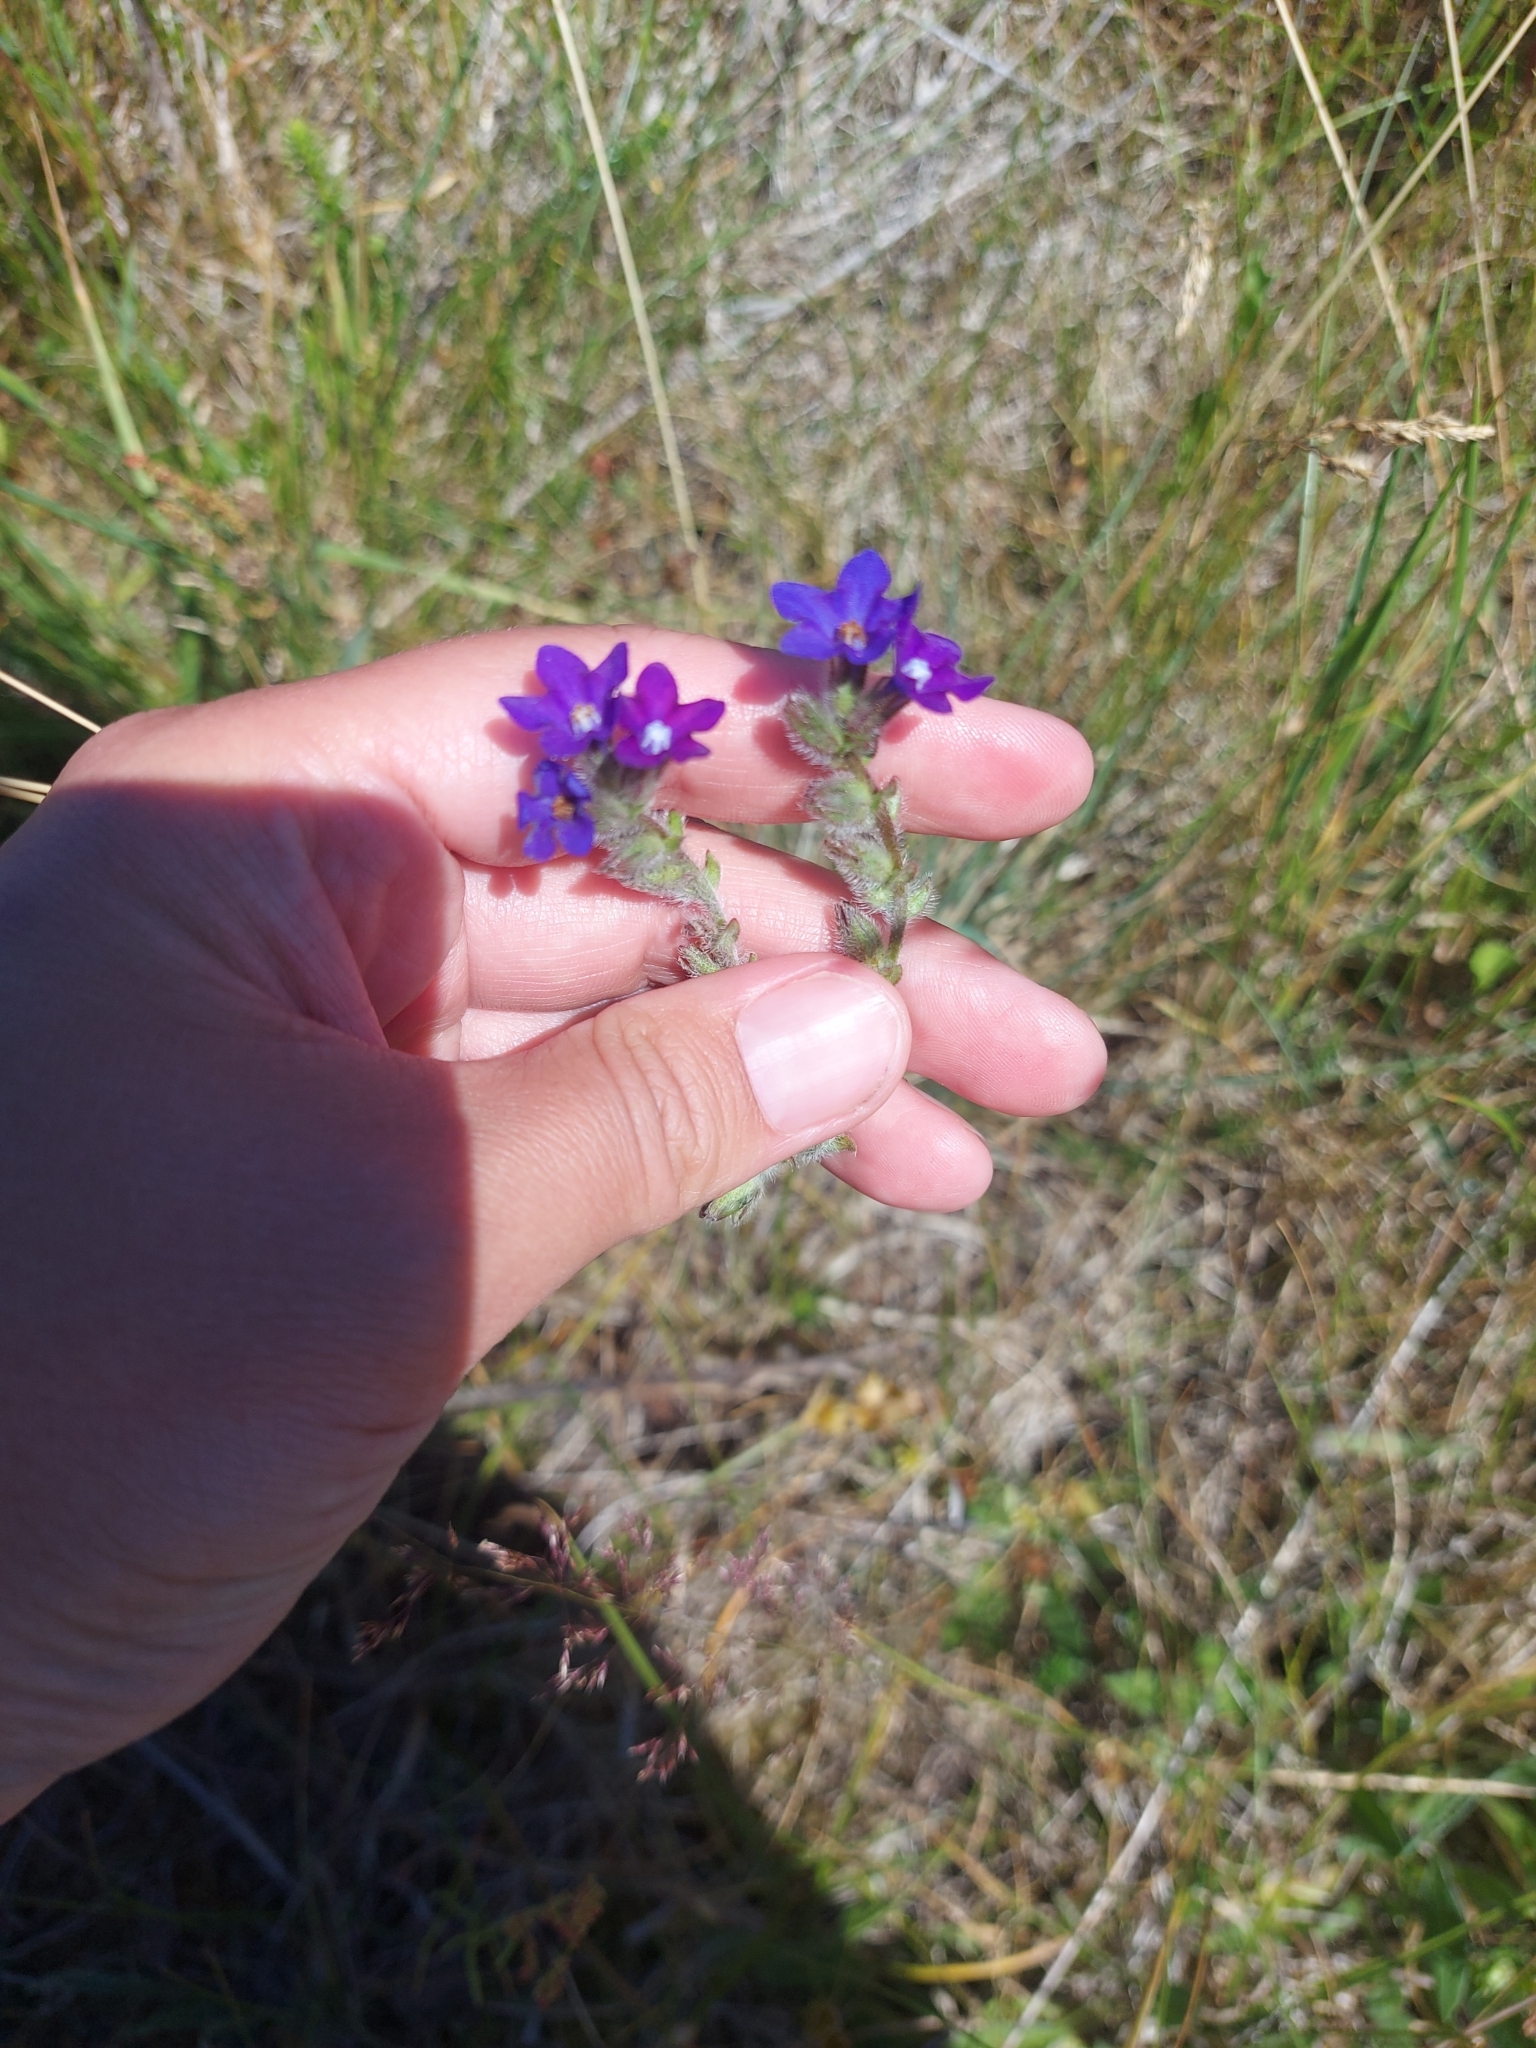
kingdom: Plantae
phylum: Tracheophyta
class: Magnoliopsida
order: Boraginales
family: Boraginaceae
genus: Anchusa
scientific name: Anchusa officinalis
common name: Alkanet
